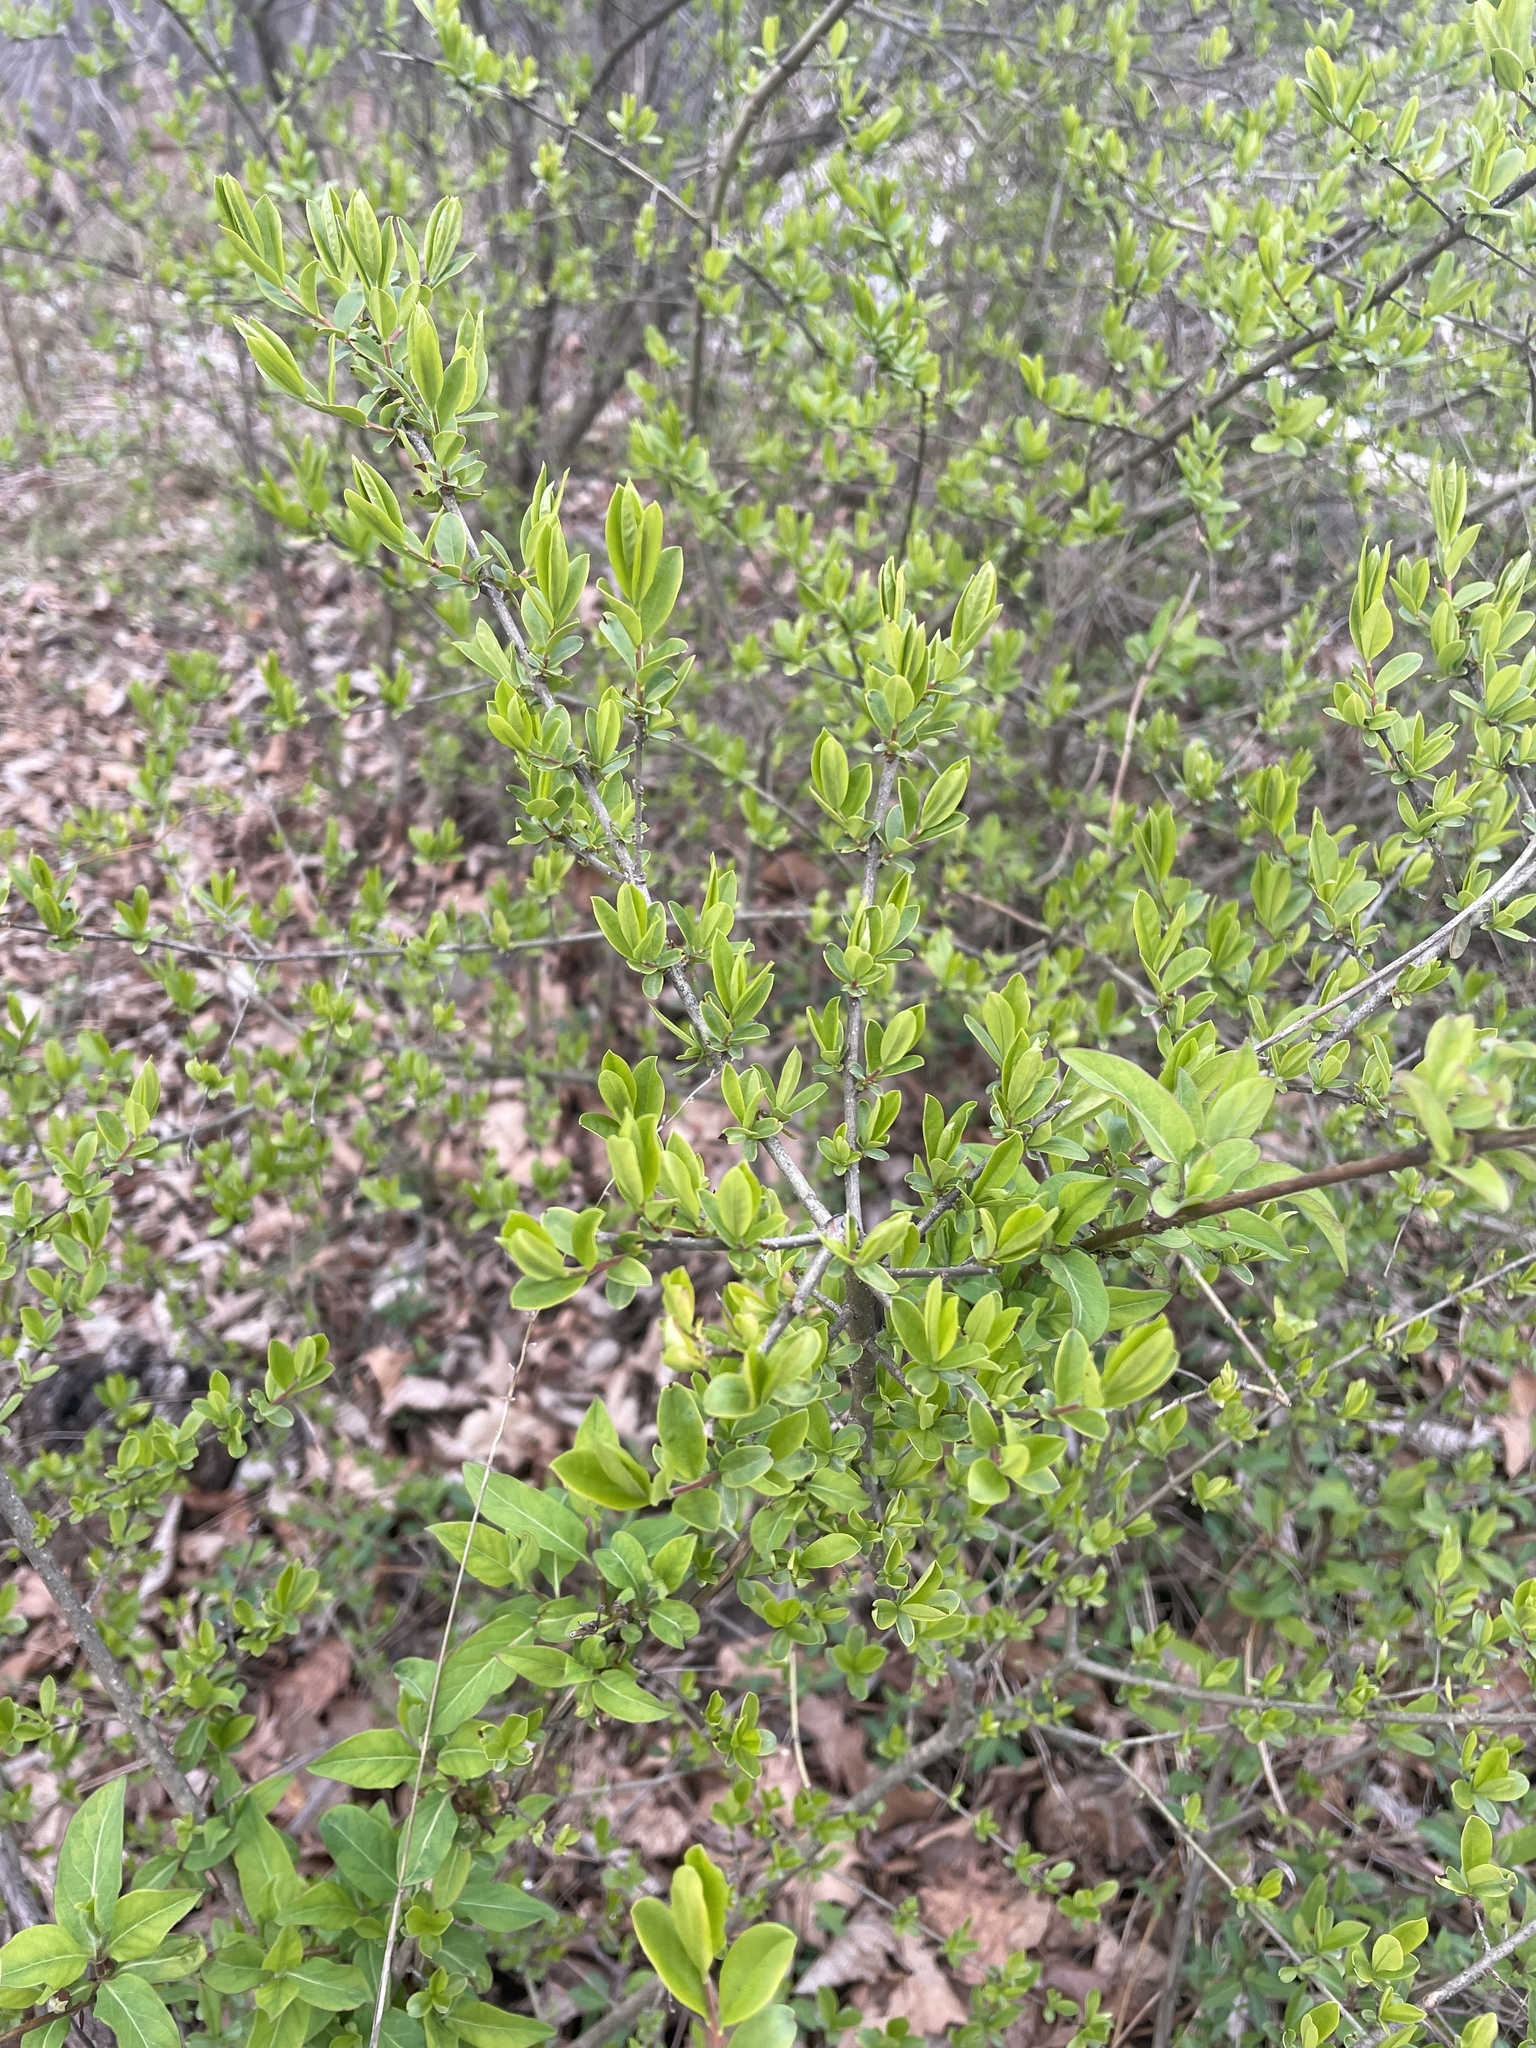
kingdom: Plantae
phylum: Tracheophyta
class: Magnoliopsida
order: Lamiales
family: Oleaceae
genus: Ligustrum
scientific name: Ligustrum obtusifolium
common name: Border privet
